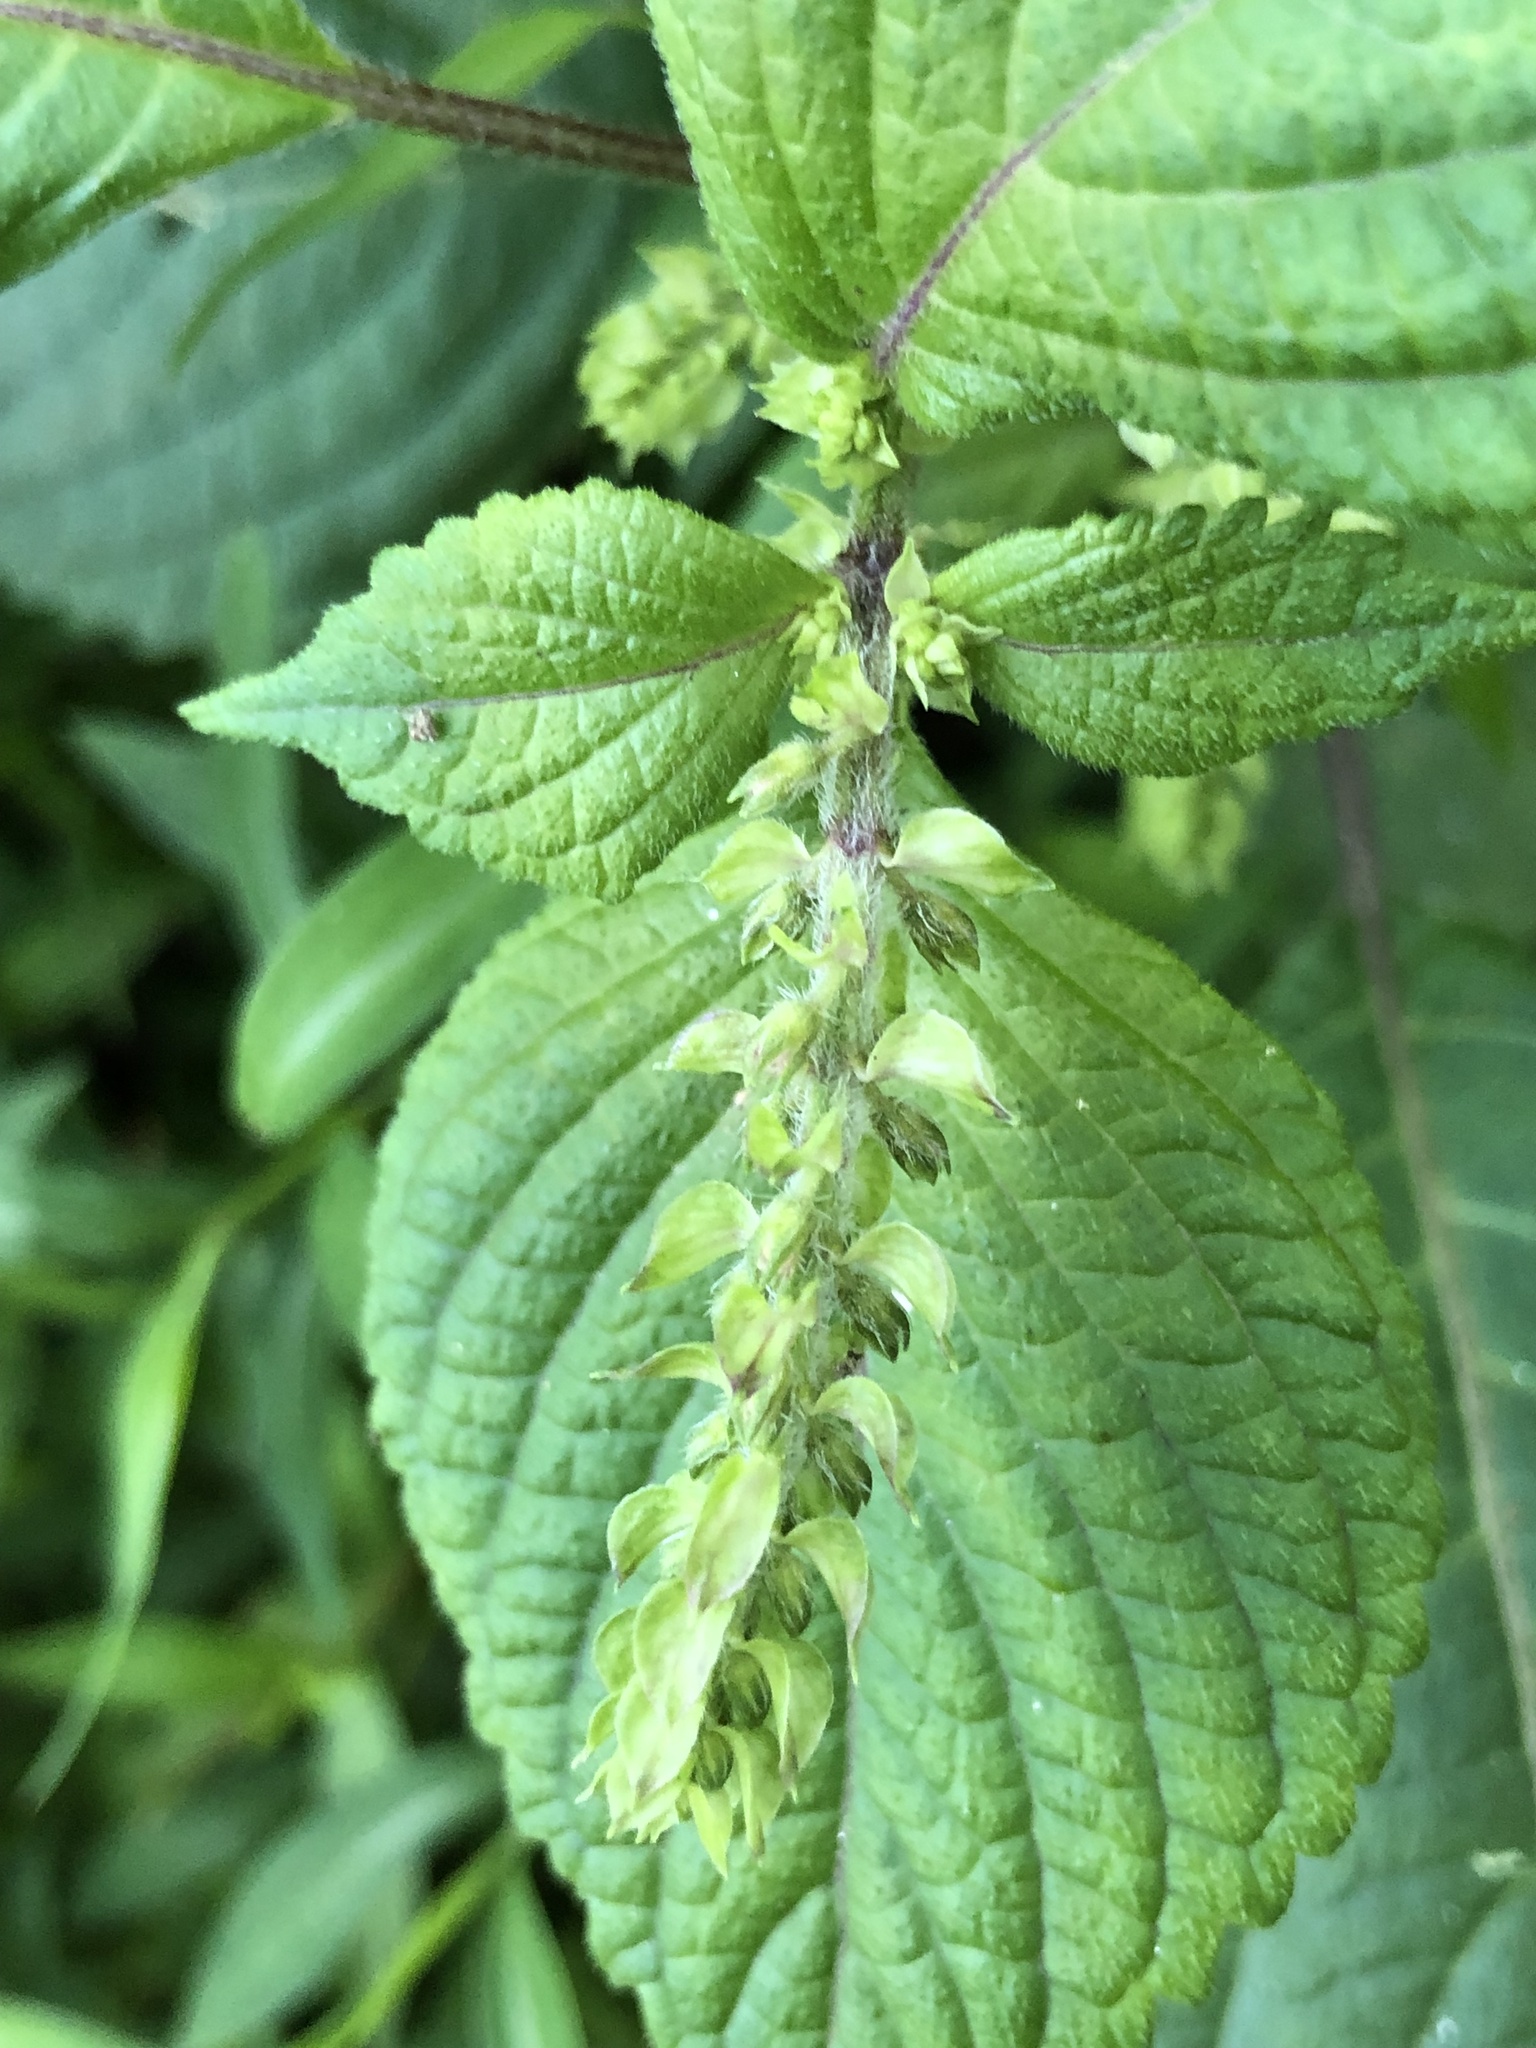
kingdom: Plantae
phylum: Tracheophyta
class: Magnoliopsida
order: Lamiales
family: Lamiaceae
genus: Perilla
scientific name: Perilla frutescens
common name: Perilla
